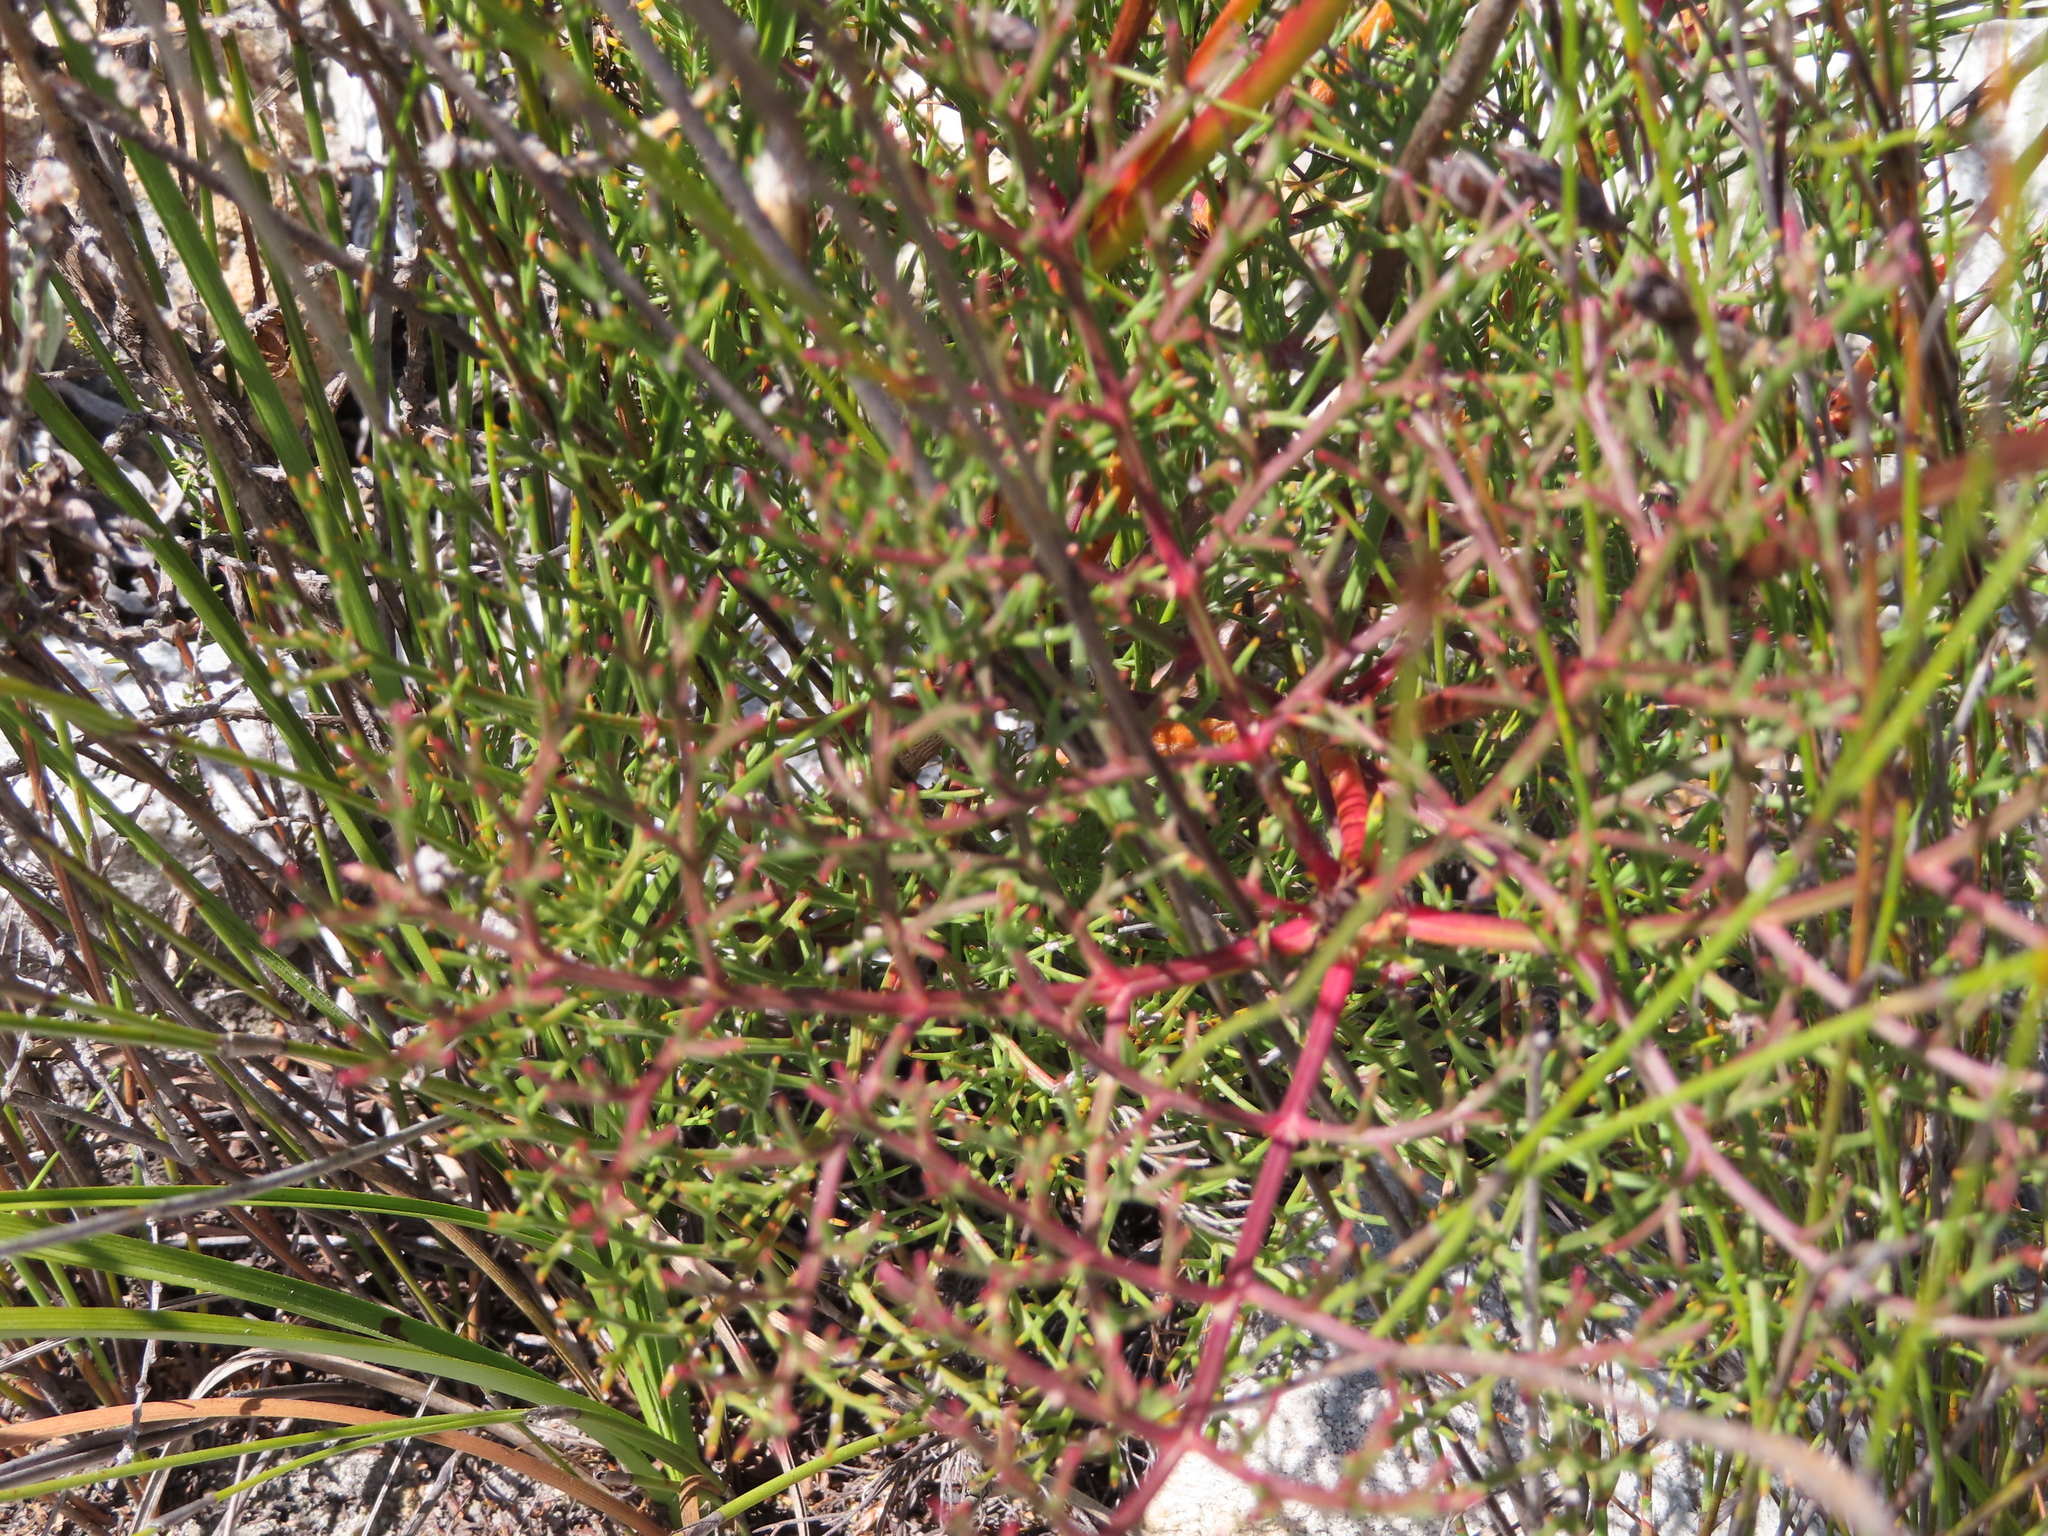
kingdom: Plantae
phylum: Tracheophyta
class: Magnoliopsida
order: Proteales
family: Proteaceae
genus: Serruria
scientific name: Serruria elongata
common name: Long-stalk spiderhead
